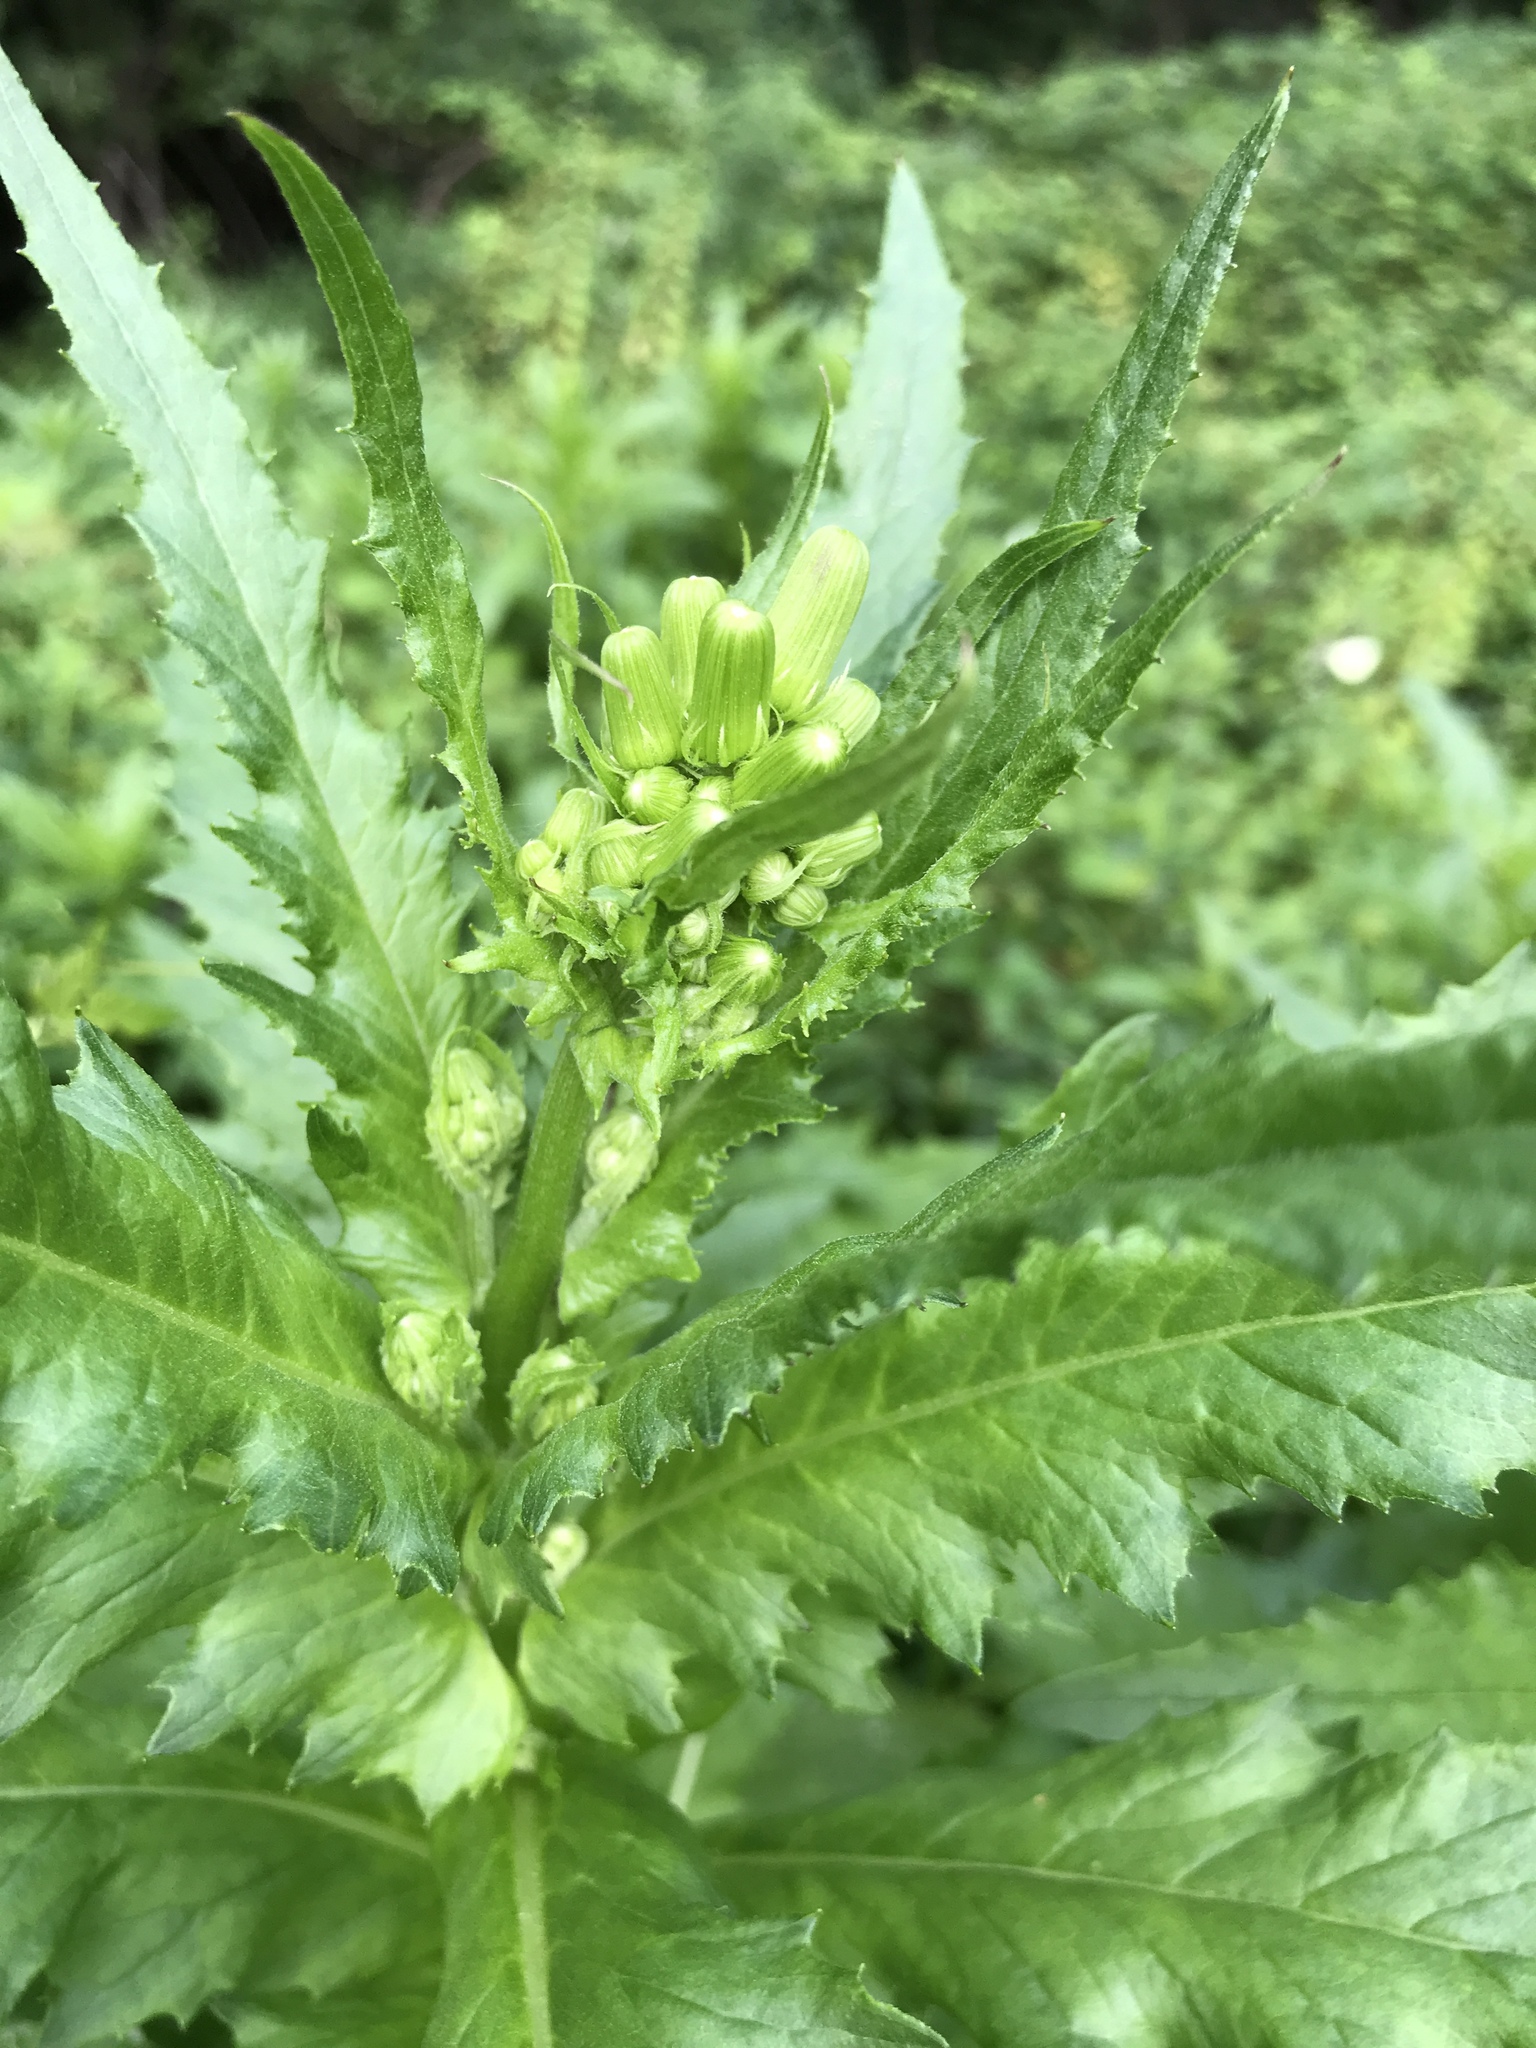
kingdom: Plantae
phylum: Tracheophyta
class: Magnoliopsida
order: Asterales
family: Asteraceae
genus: Erechtites
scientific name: Erechtites hieraciifolius
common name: American burnweed
